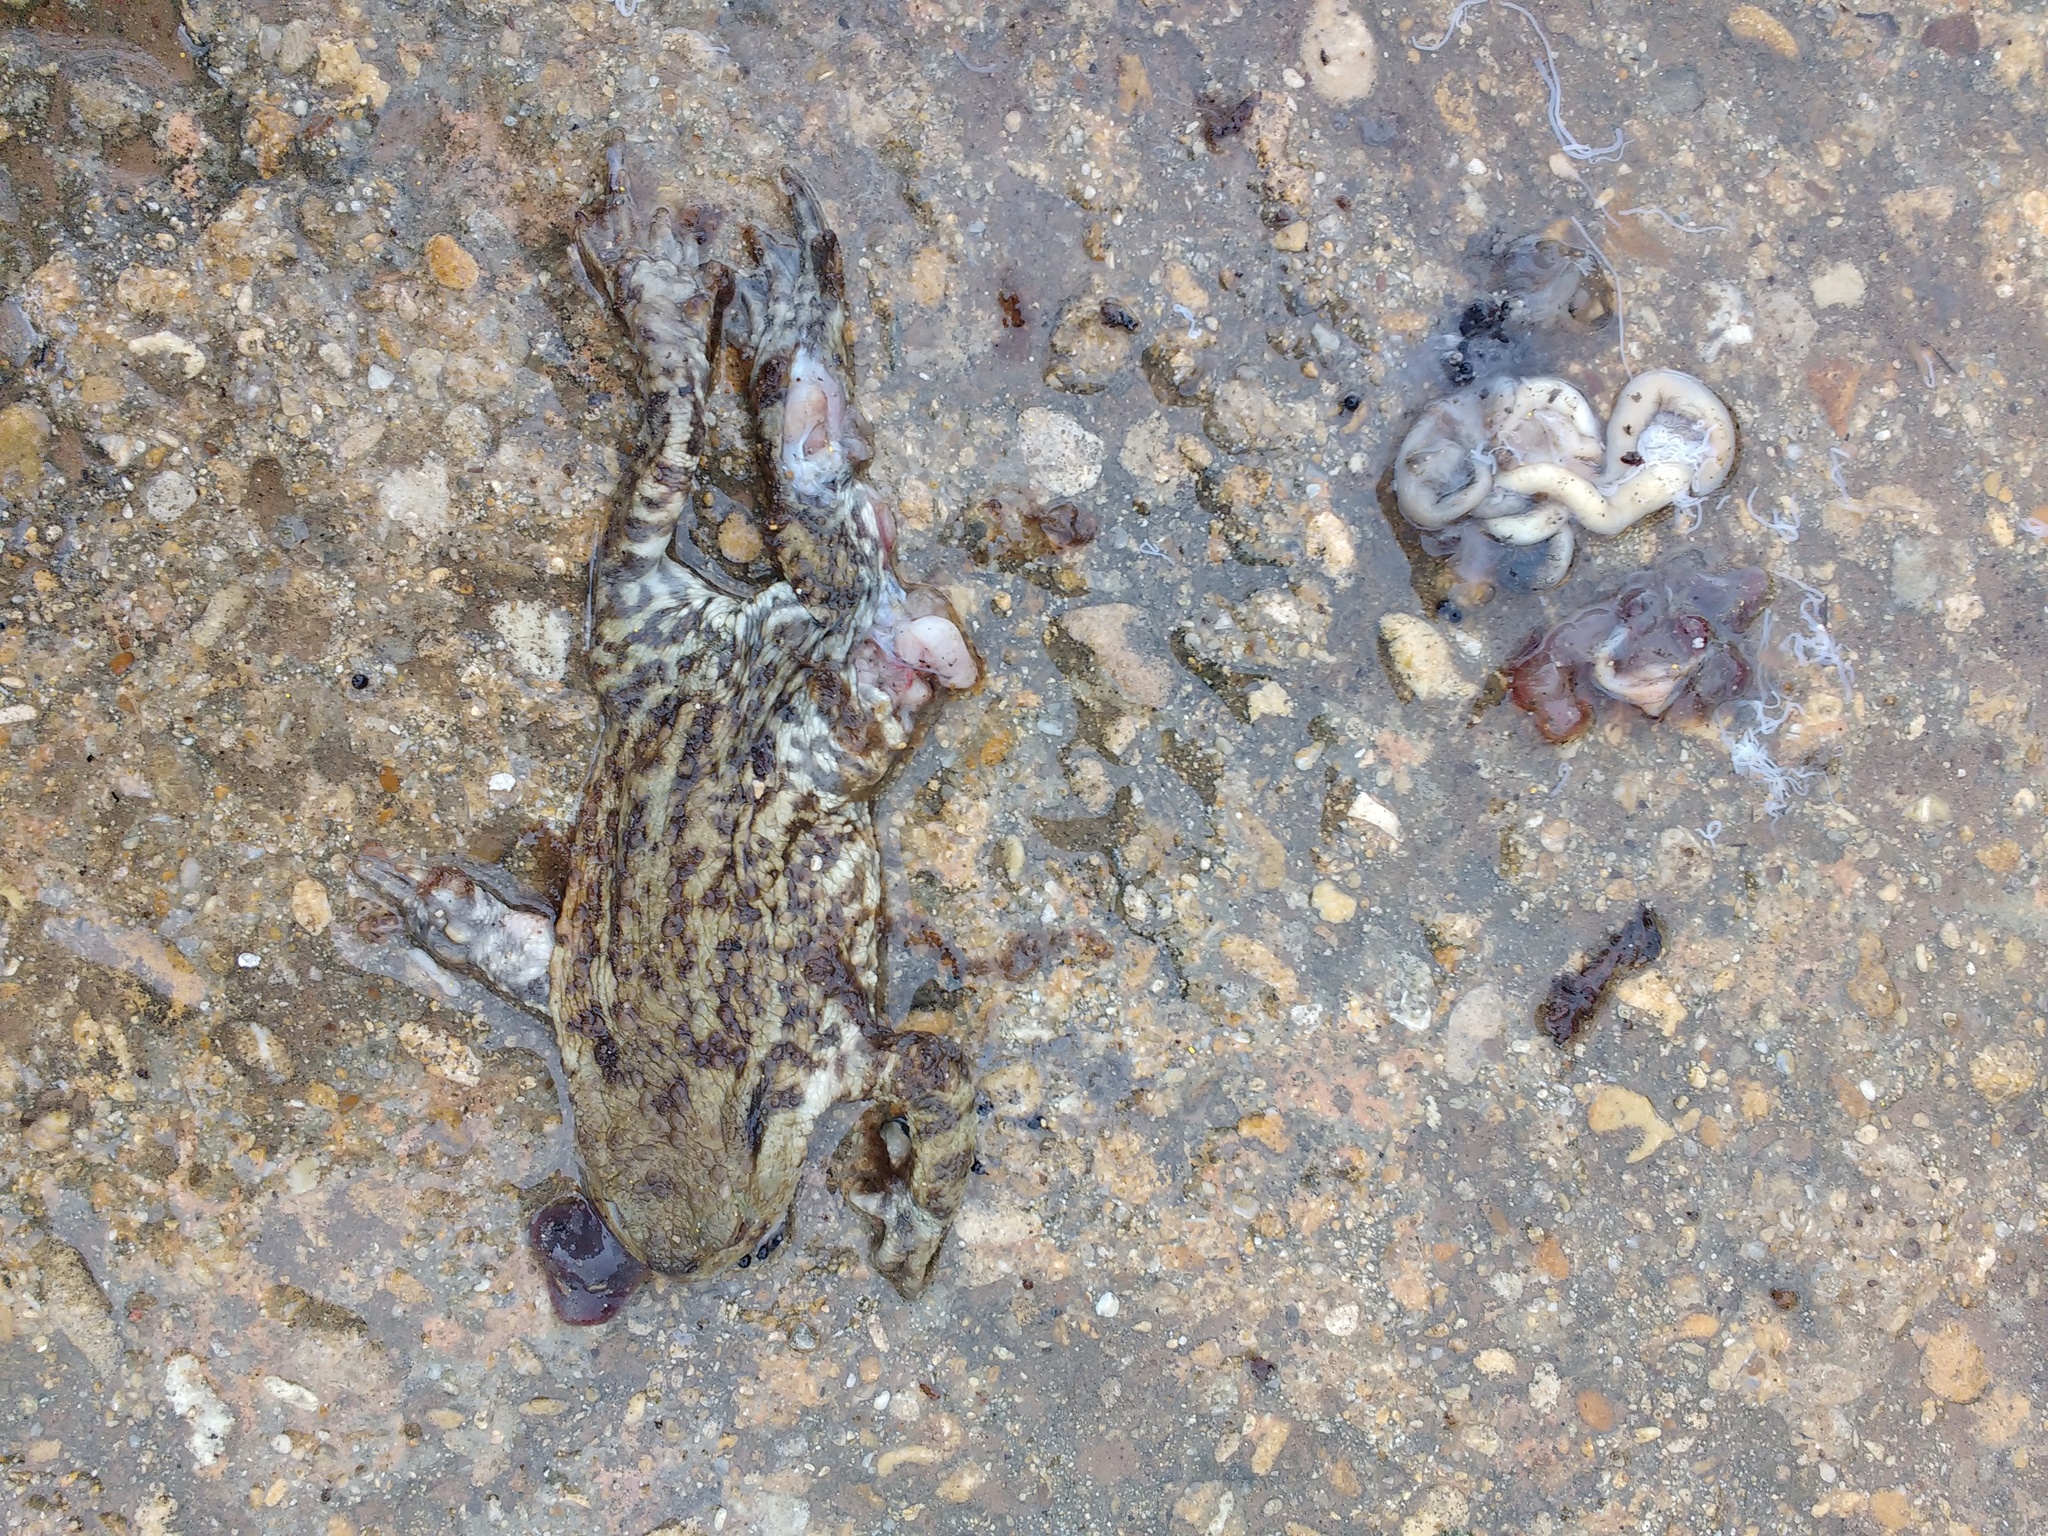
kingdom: Animalia
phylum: Chordata
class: Amphibia
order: Anura
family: Bufonidae
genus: Bufo
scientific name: Bufo bufo
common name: Common toad
